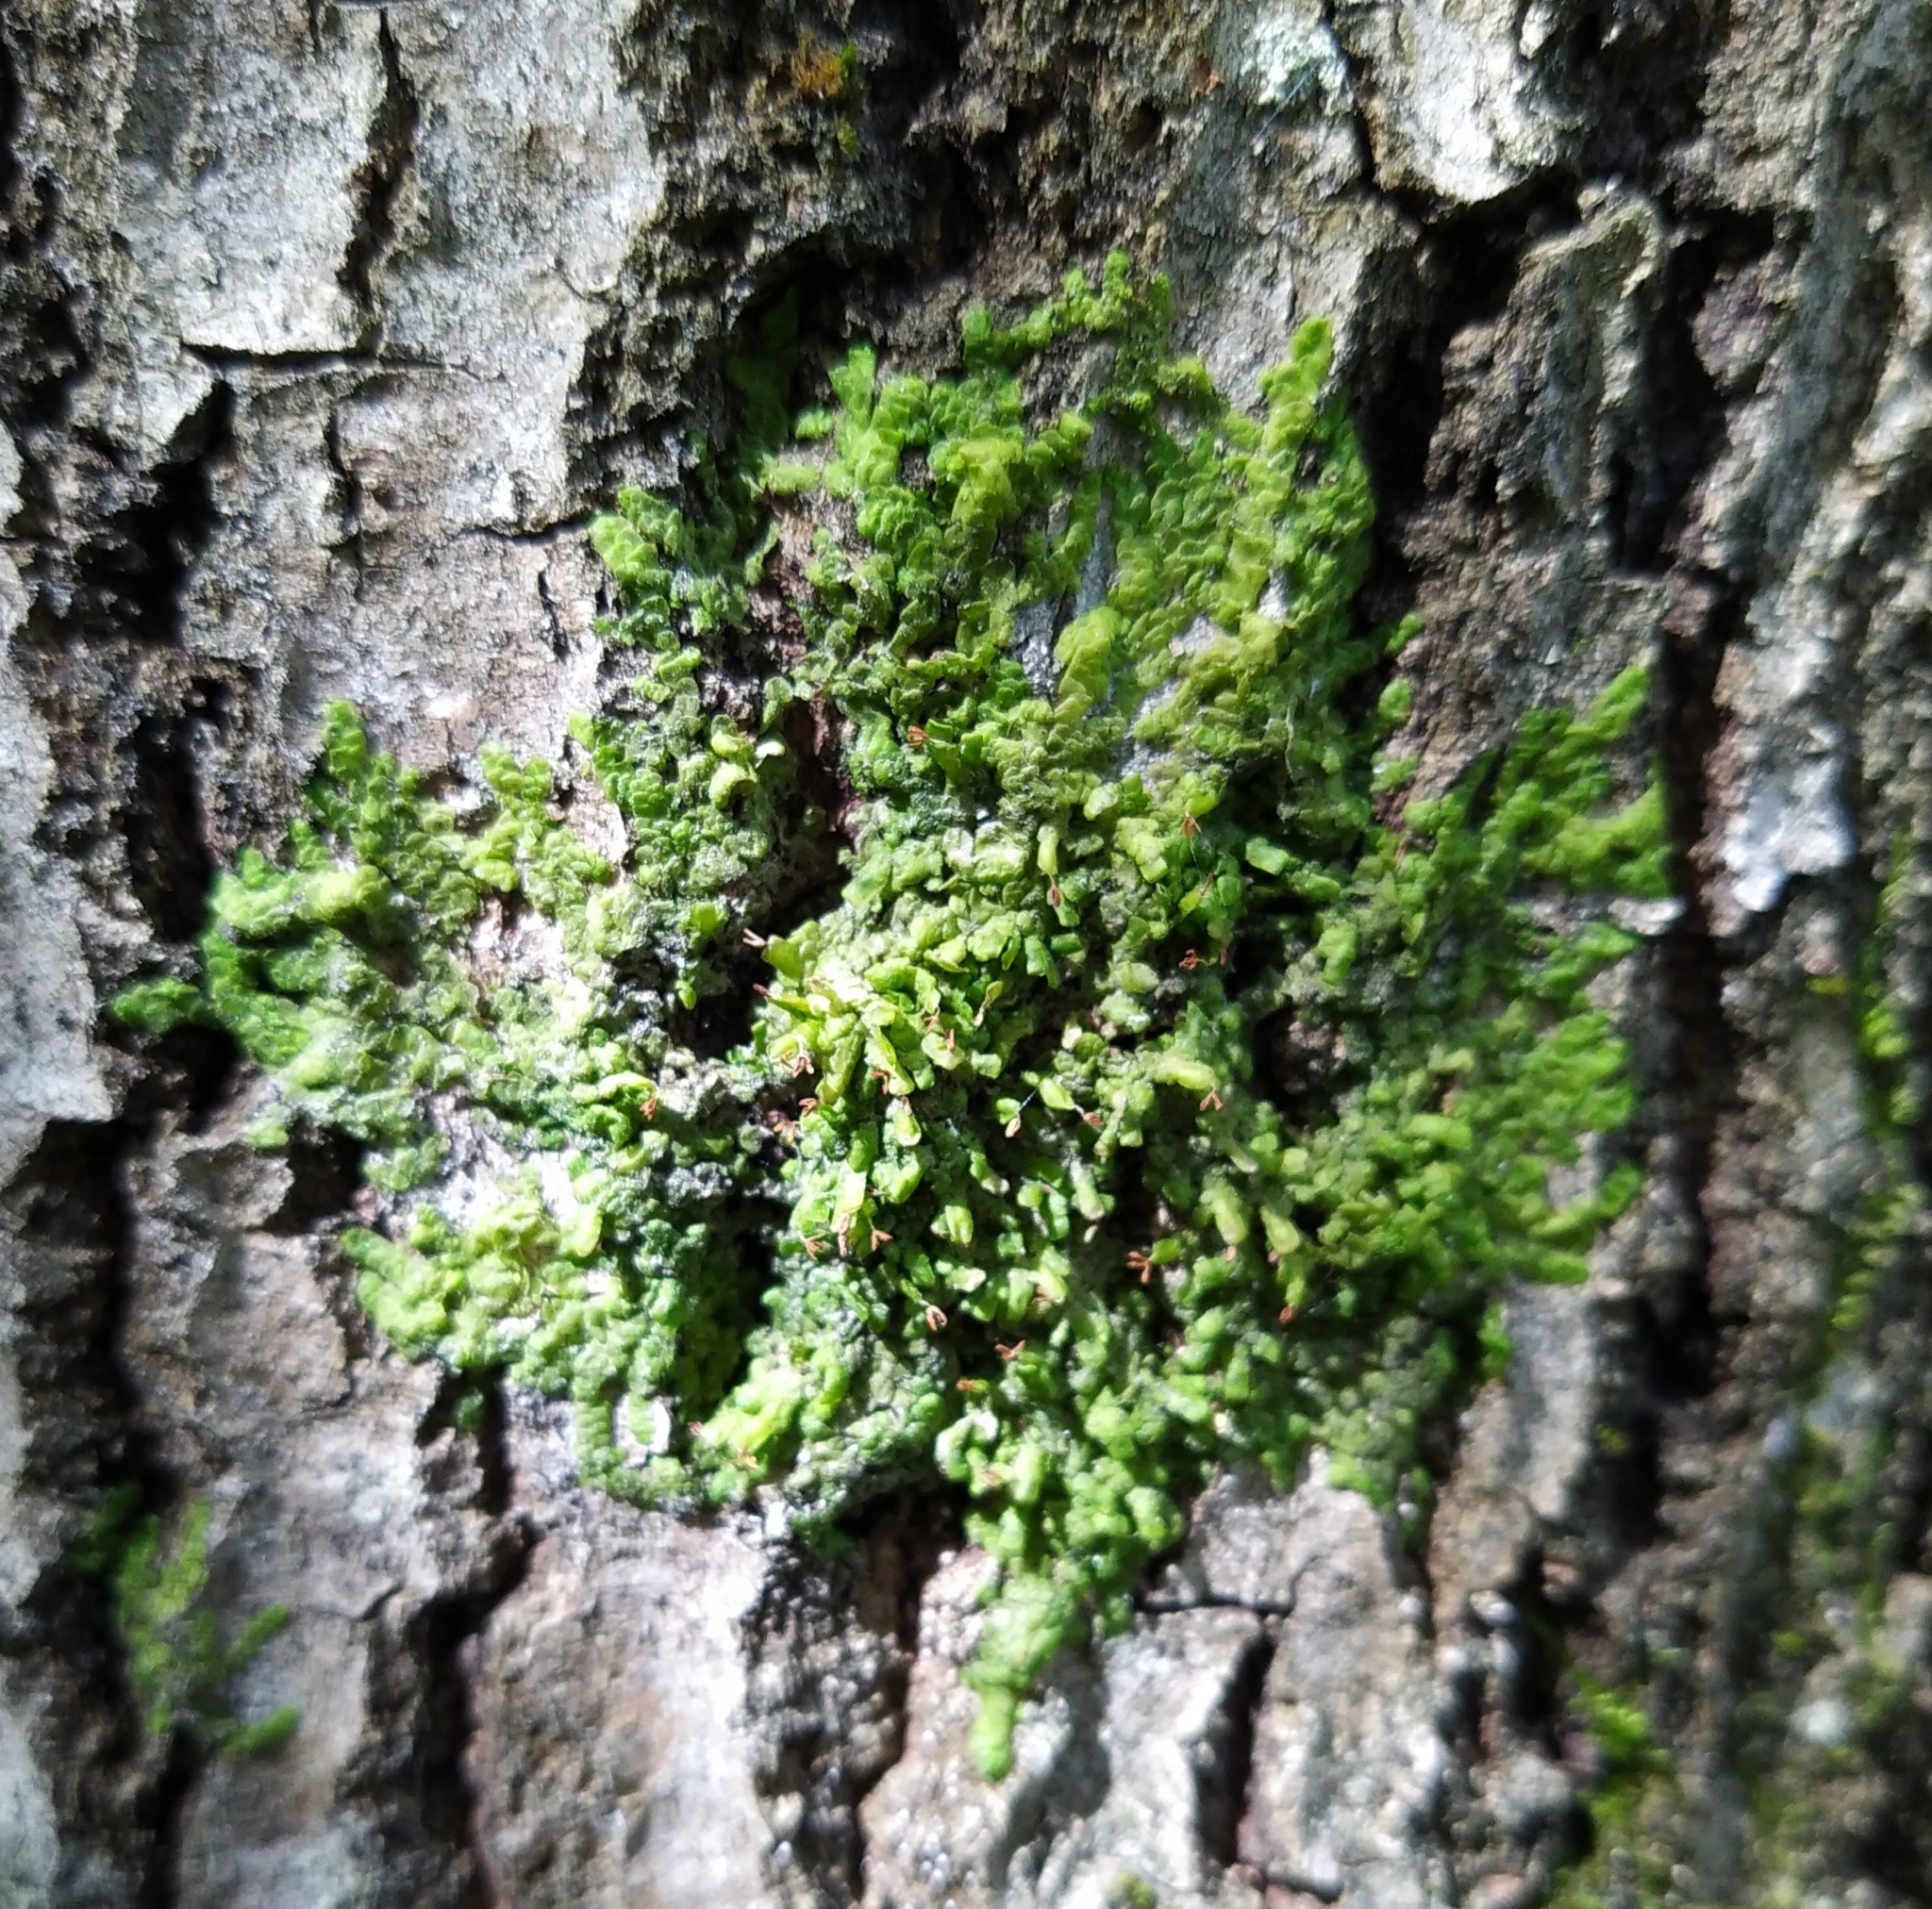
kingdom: Plantae
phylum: Marchantiophyta
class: Jungermanniopsida
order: Porellales
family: Radulaceae
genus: Radula
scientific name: Radula complanata
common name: Flat-leaved scalewort
